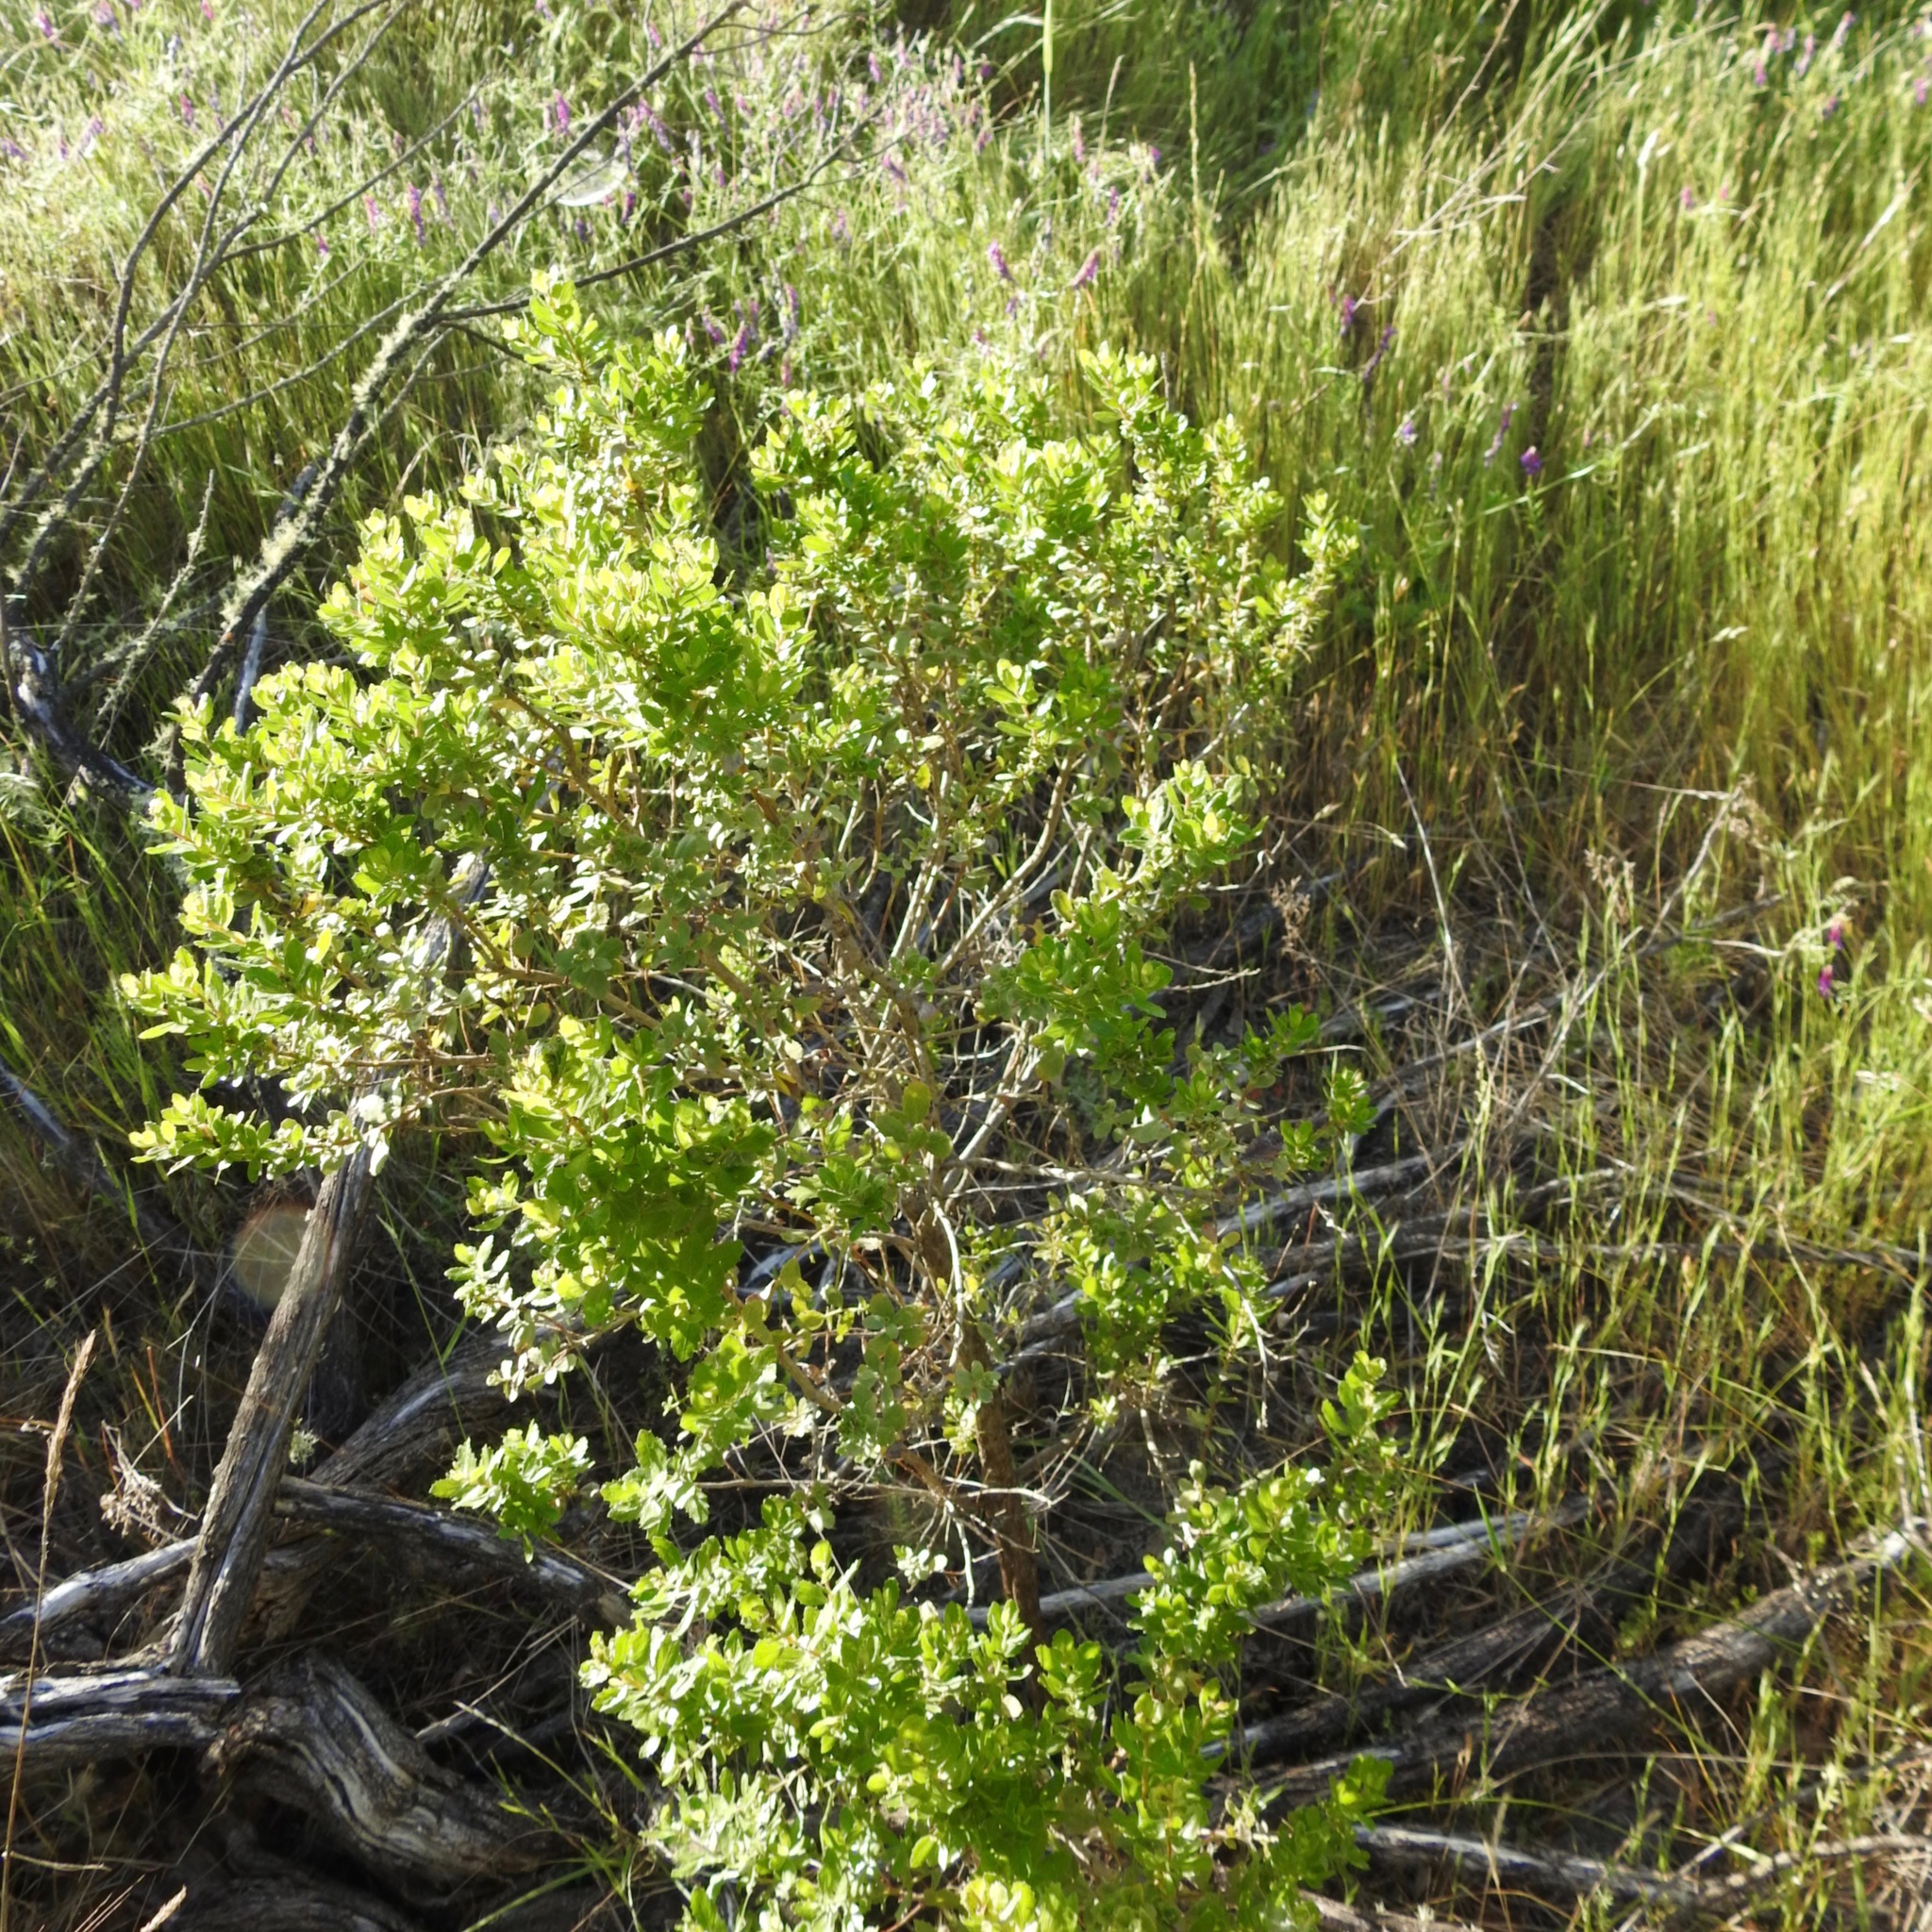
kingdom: Plantae
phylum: Tracheophyta
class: Magnoliopsida
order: Asterales
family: Asteraceae
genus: Baccharis
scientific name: Baccharis pilularis
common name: Coyotebrush
